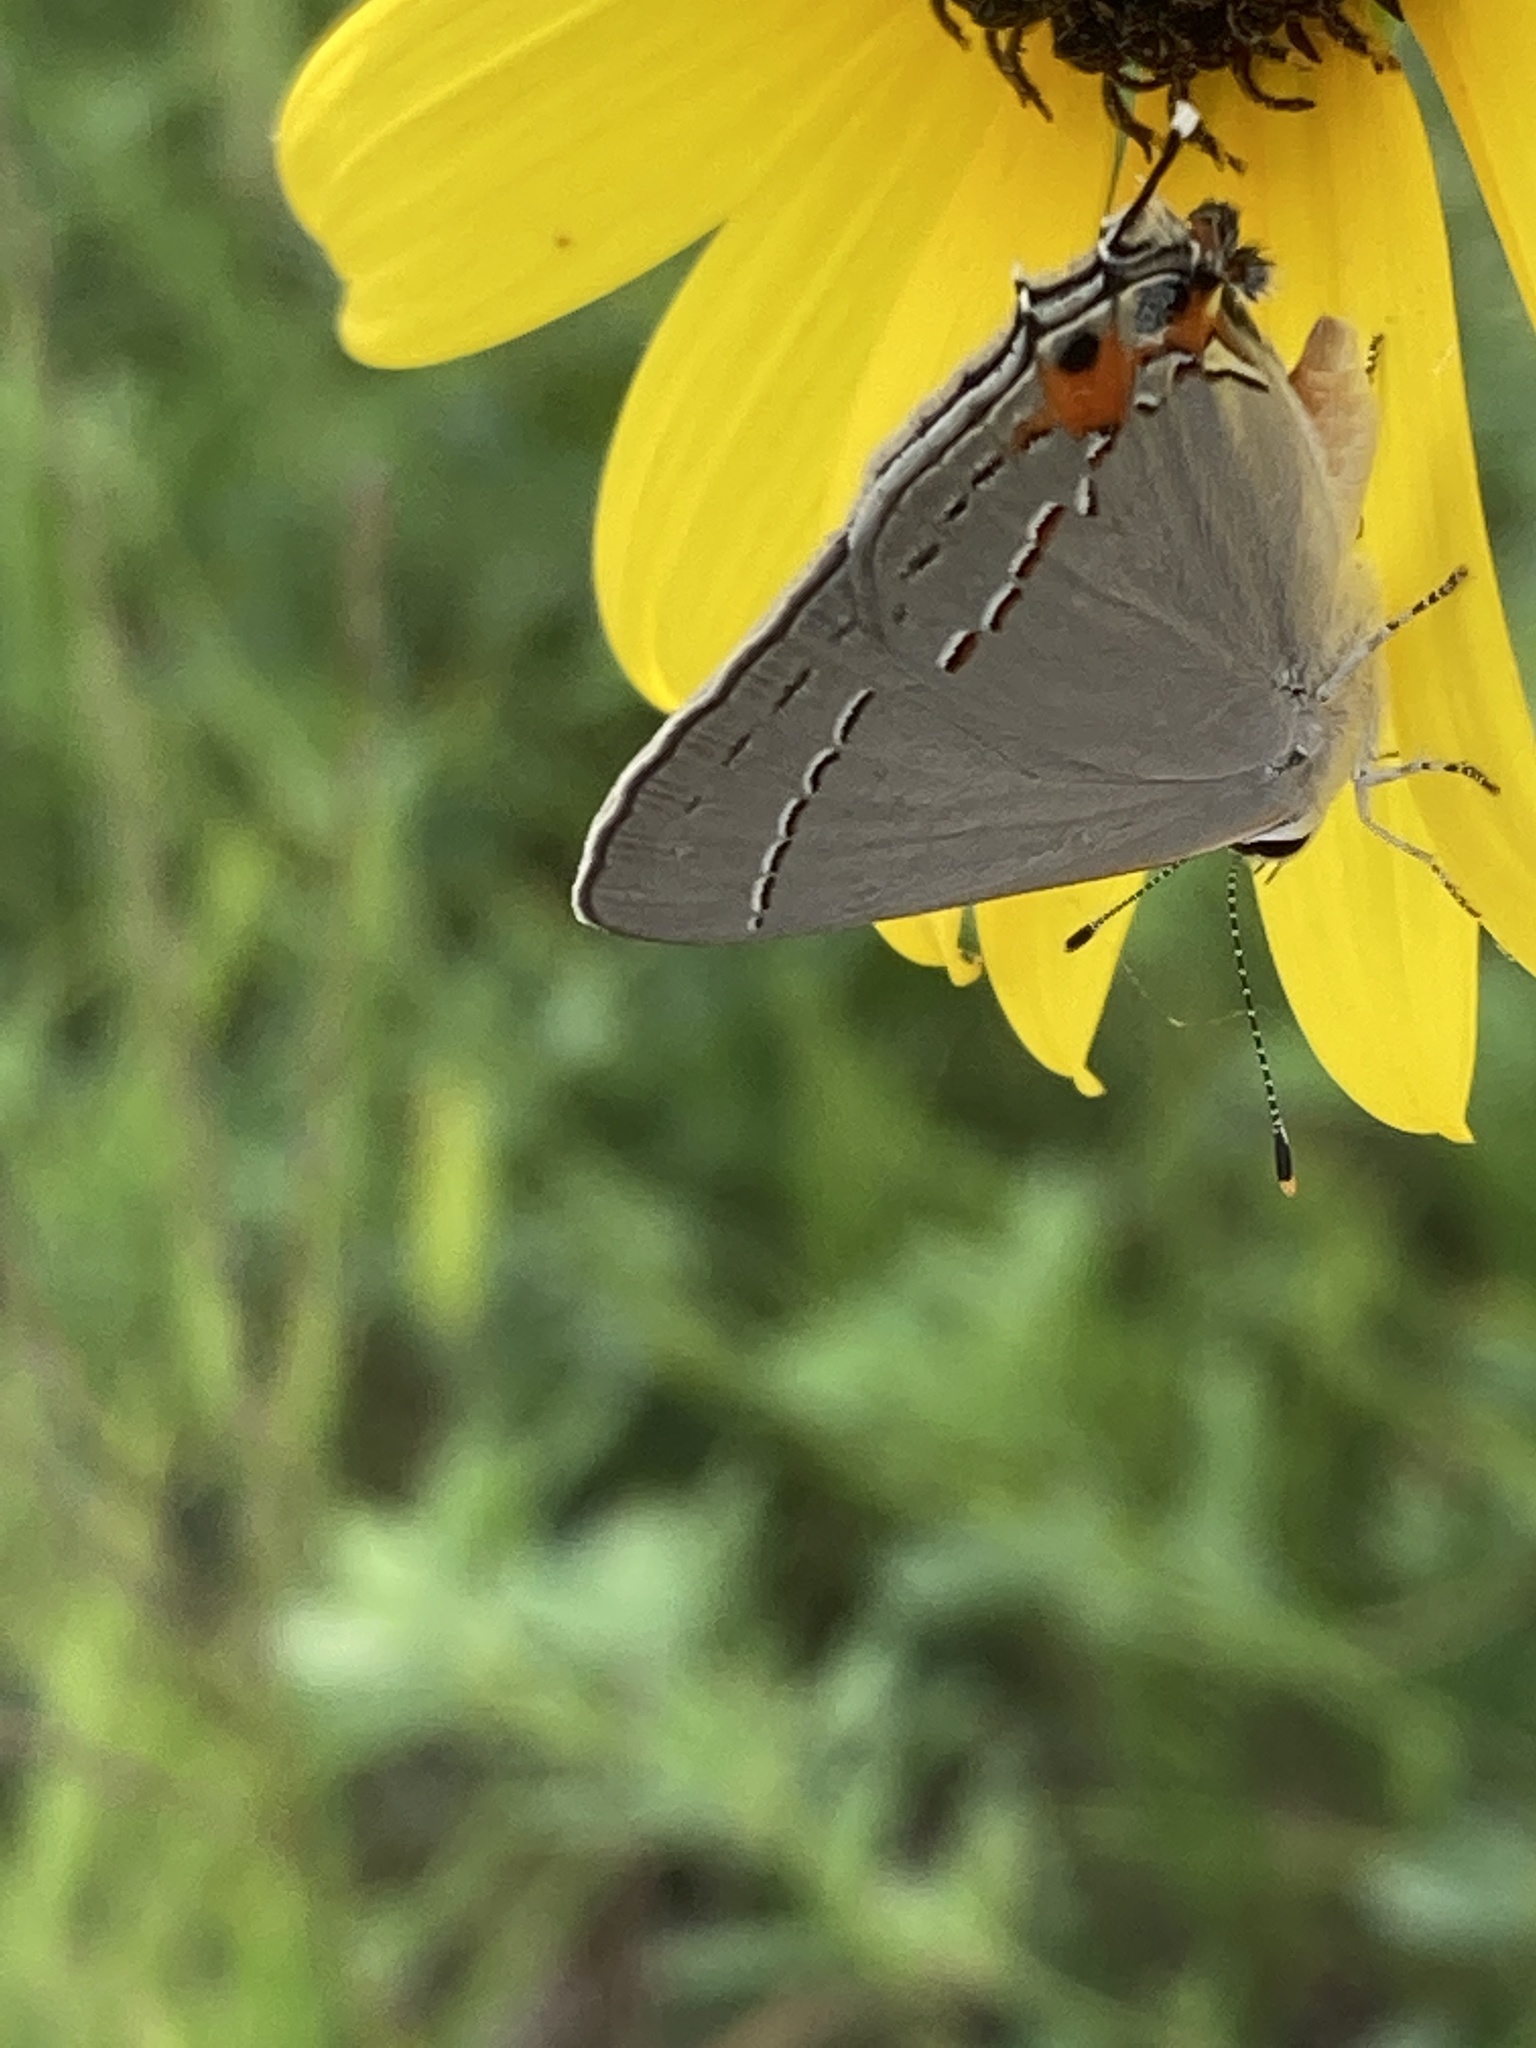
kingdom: Animalia
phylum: Arthropoda
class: Insecta
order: Lepidoptera
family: Lycaenidae
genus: Strymon
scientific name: Strymon melinus
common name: Gray hairstreak
